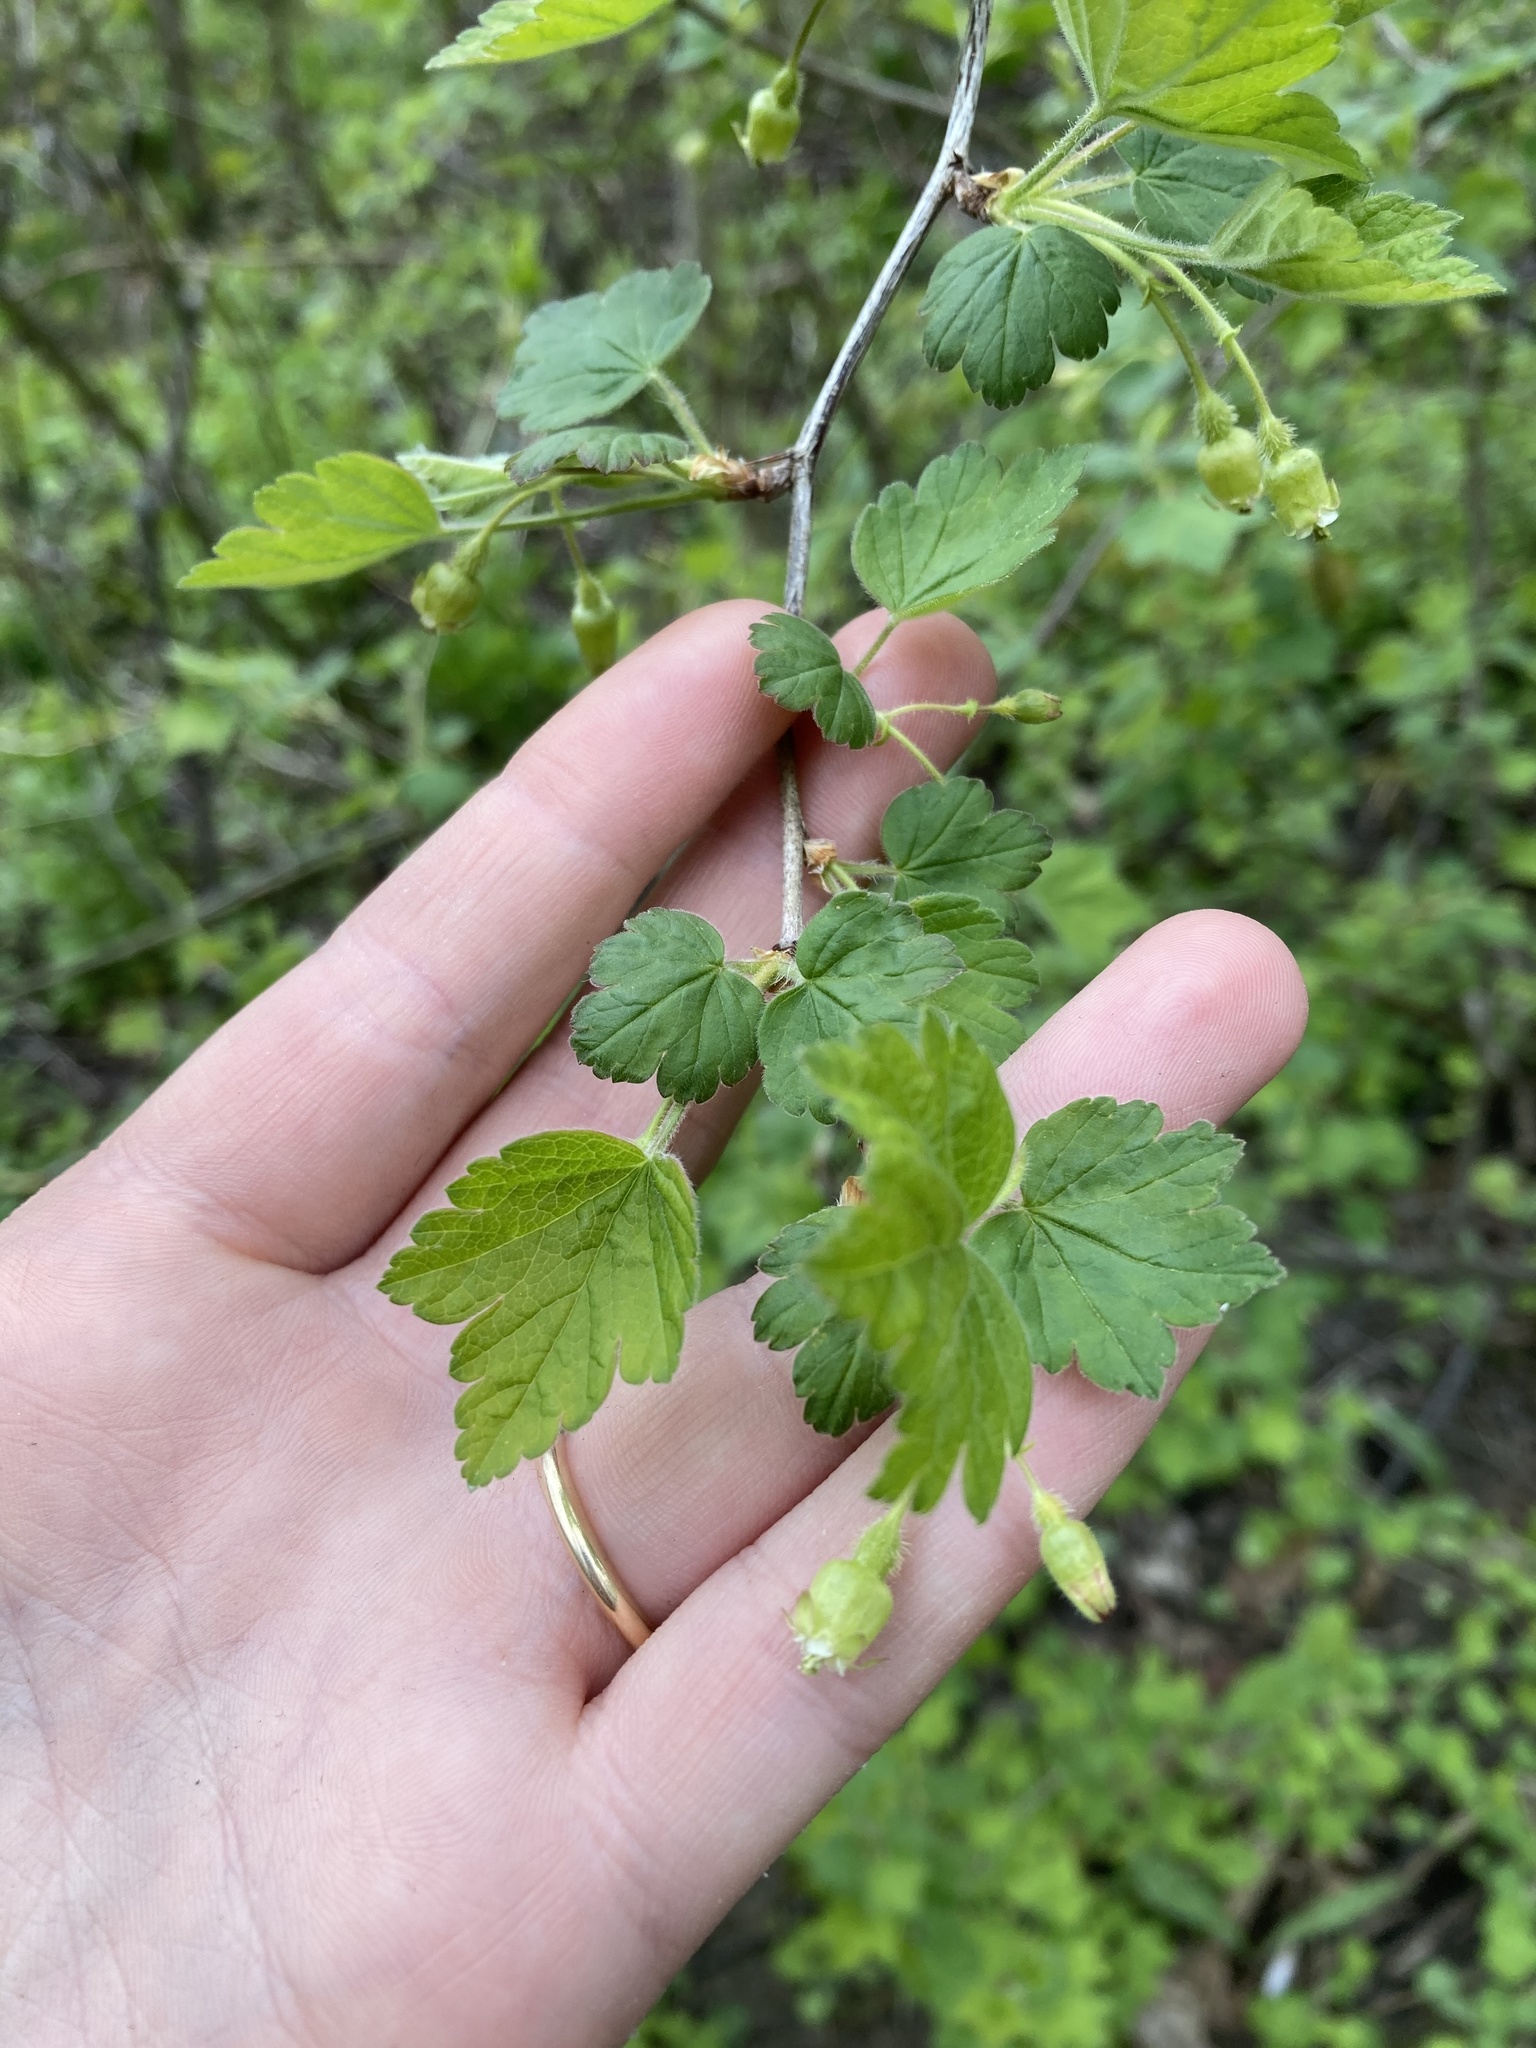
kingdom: Plantae
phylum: Tracheophyta
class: Magnoliopsida
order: Saxifragales
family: Grossulariaceae
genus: Ribes
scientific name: Ribes cynosbati
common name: American gooseberry
